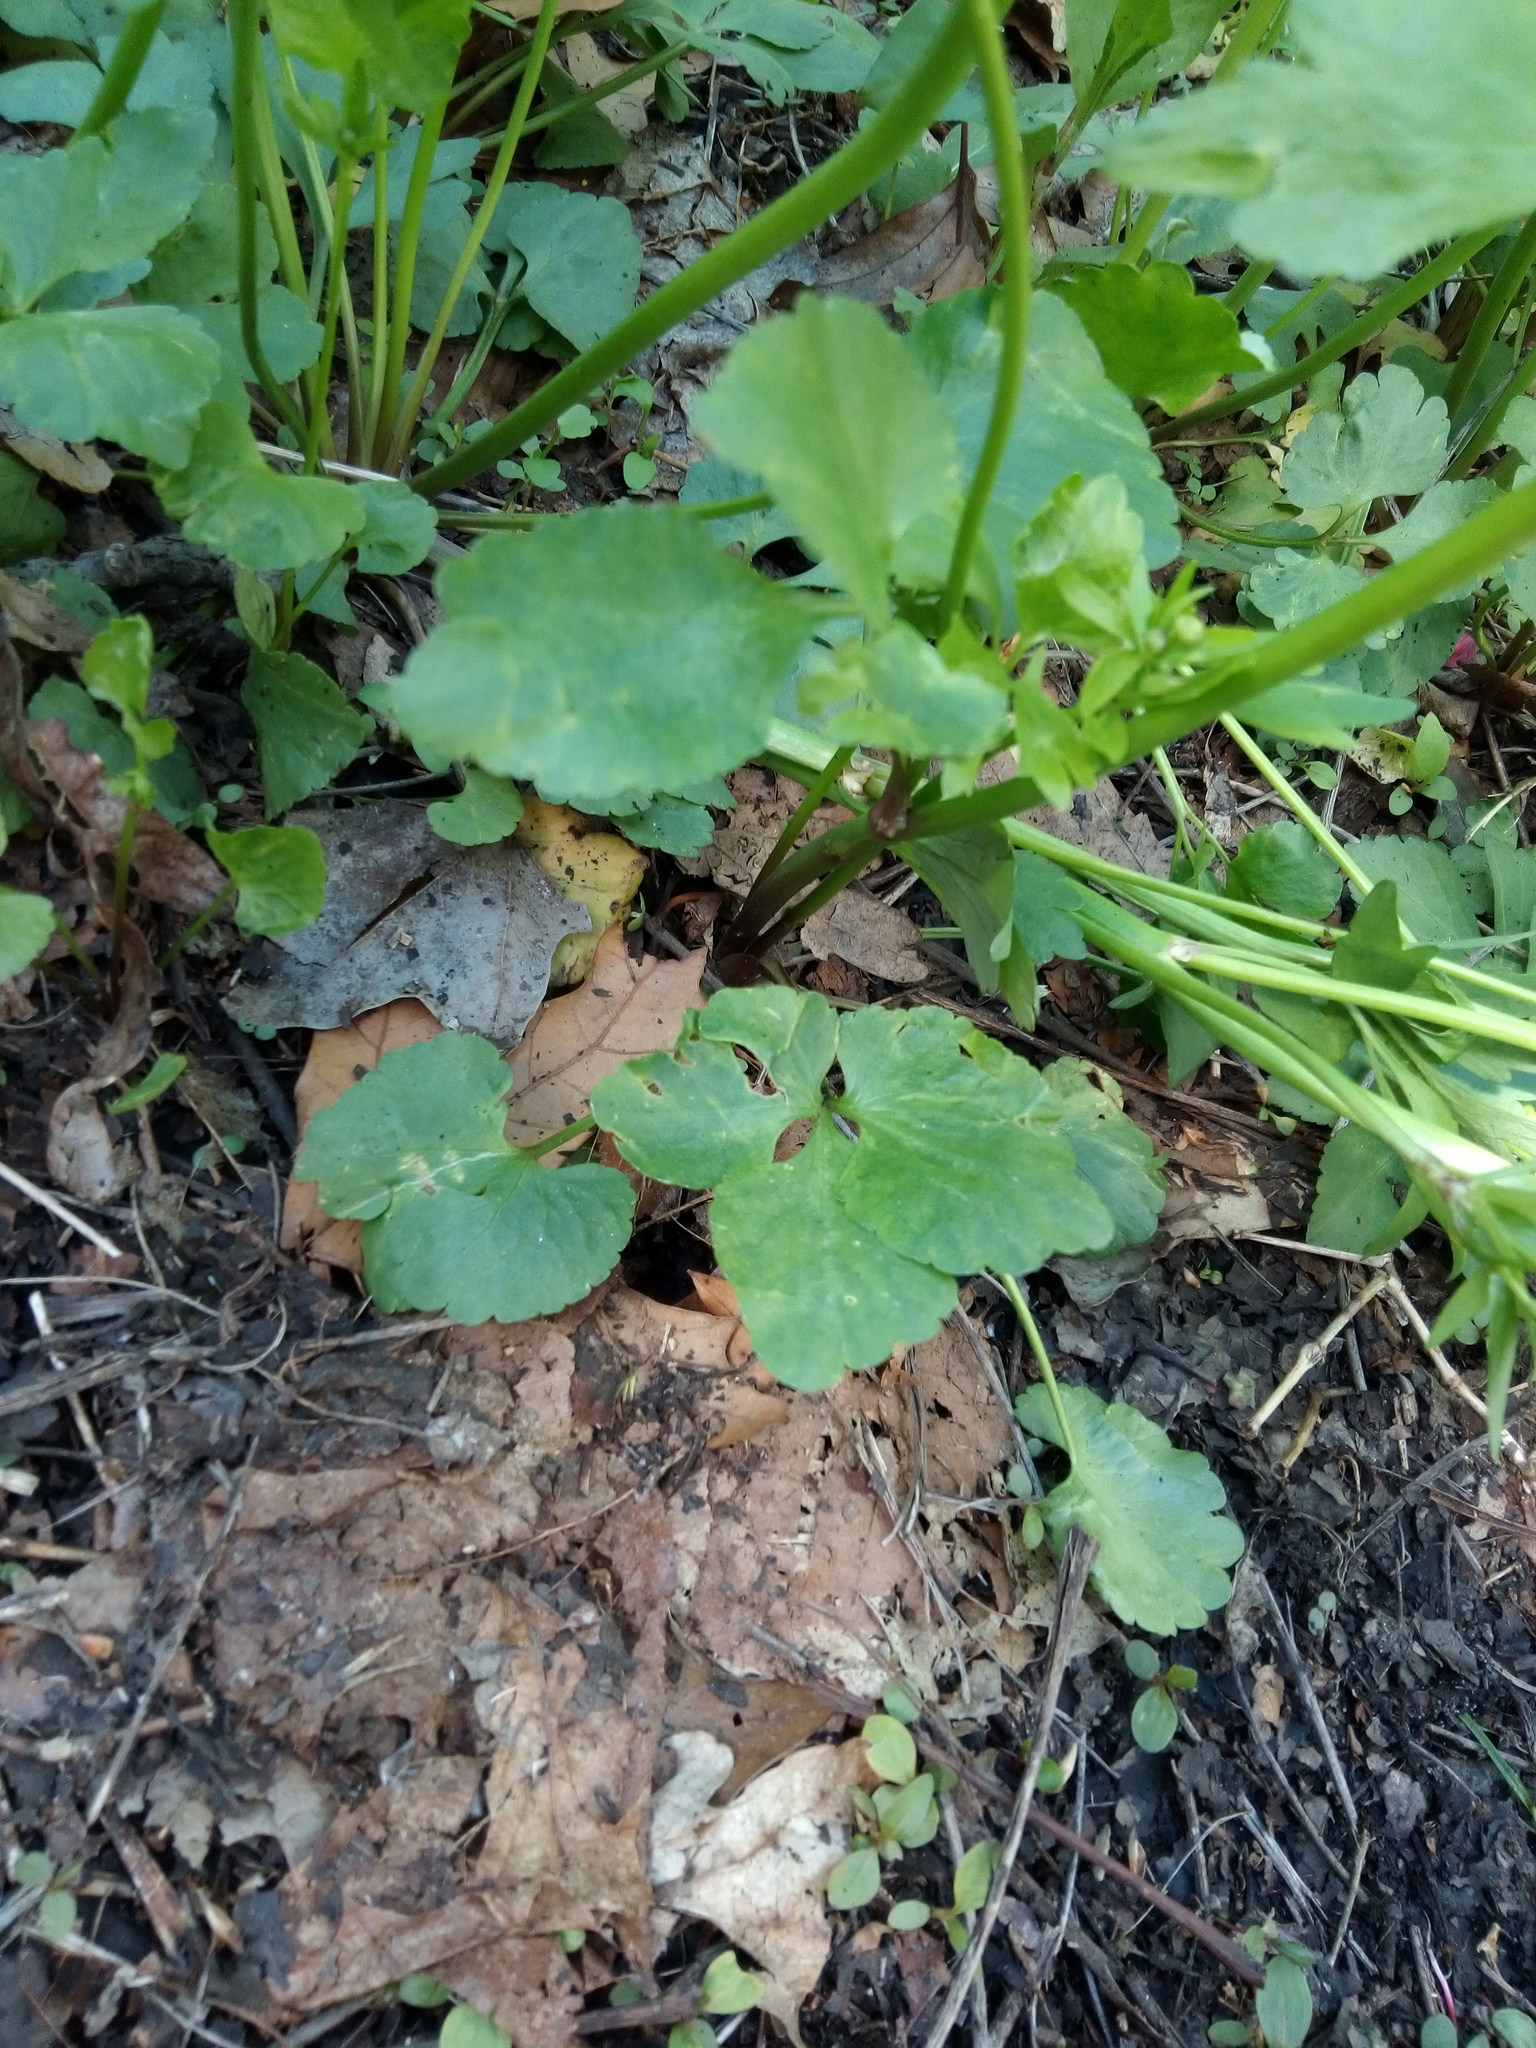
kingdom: Plantae
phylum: Tracheophyta
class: Magnoliopsida
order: Ranunculales
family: Ranunculaceae
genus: Ranunculus
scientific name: Ranunculus abortivus
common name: Early wood buttercup
